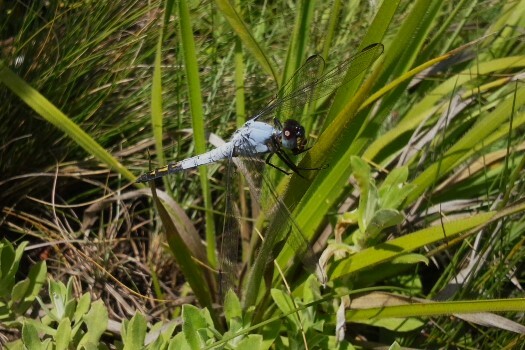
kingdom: Animalia
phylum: Arthropoda
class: Insecta
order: Odonata
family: Libellulidae
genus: Nesciothemis
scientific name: Nesciothemis farinosa
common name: Eastern blacktail
